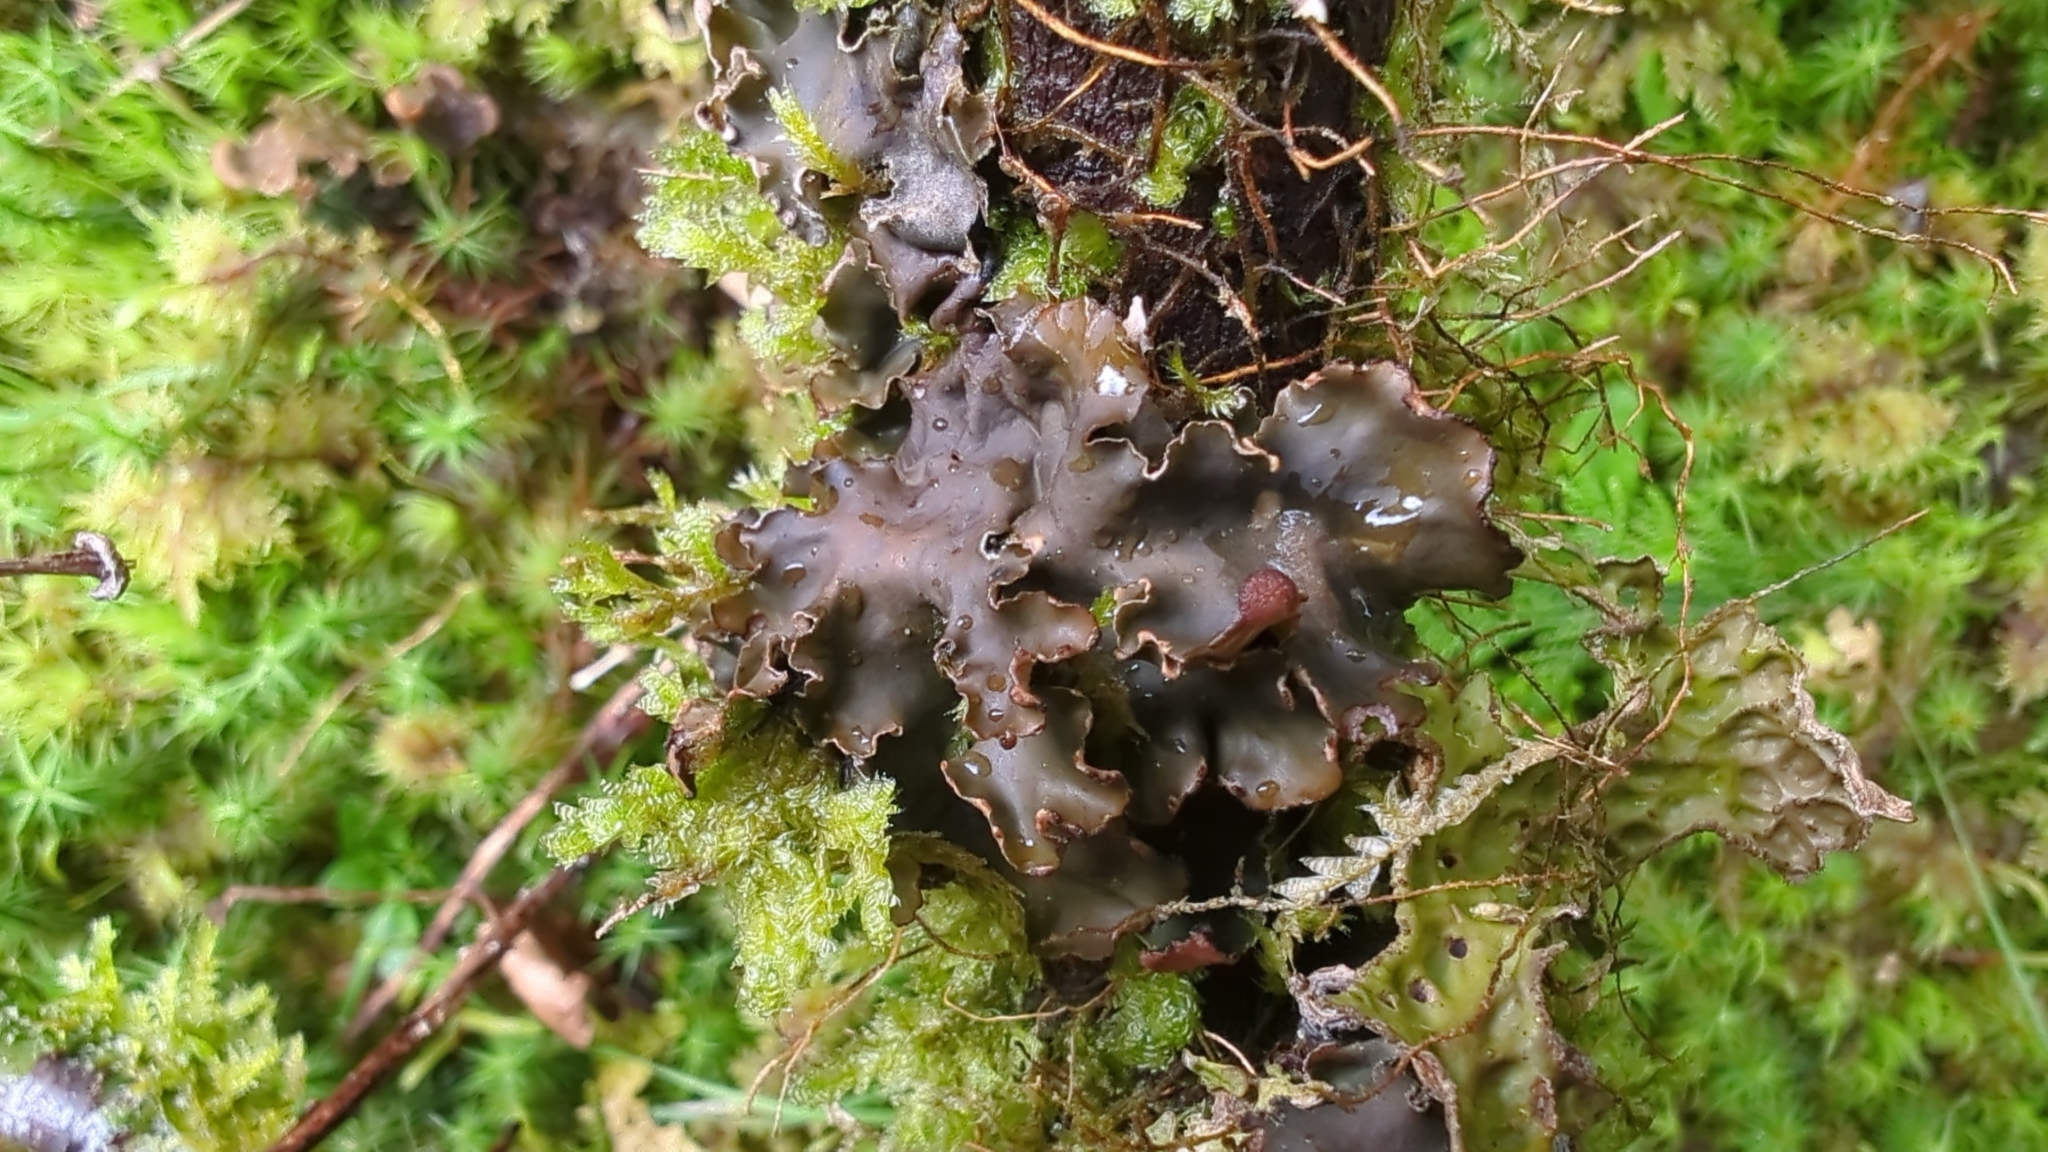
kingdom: Fungi
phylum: Ascomycota
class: Lecanoromycetes
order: Peltigerales
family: Peltigeraceae
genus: Peltigera
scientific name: Peltigera collina
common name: Gritty tree pelt lichen
